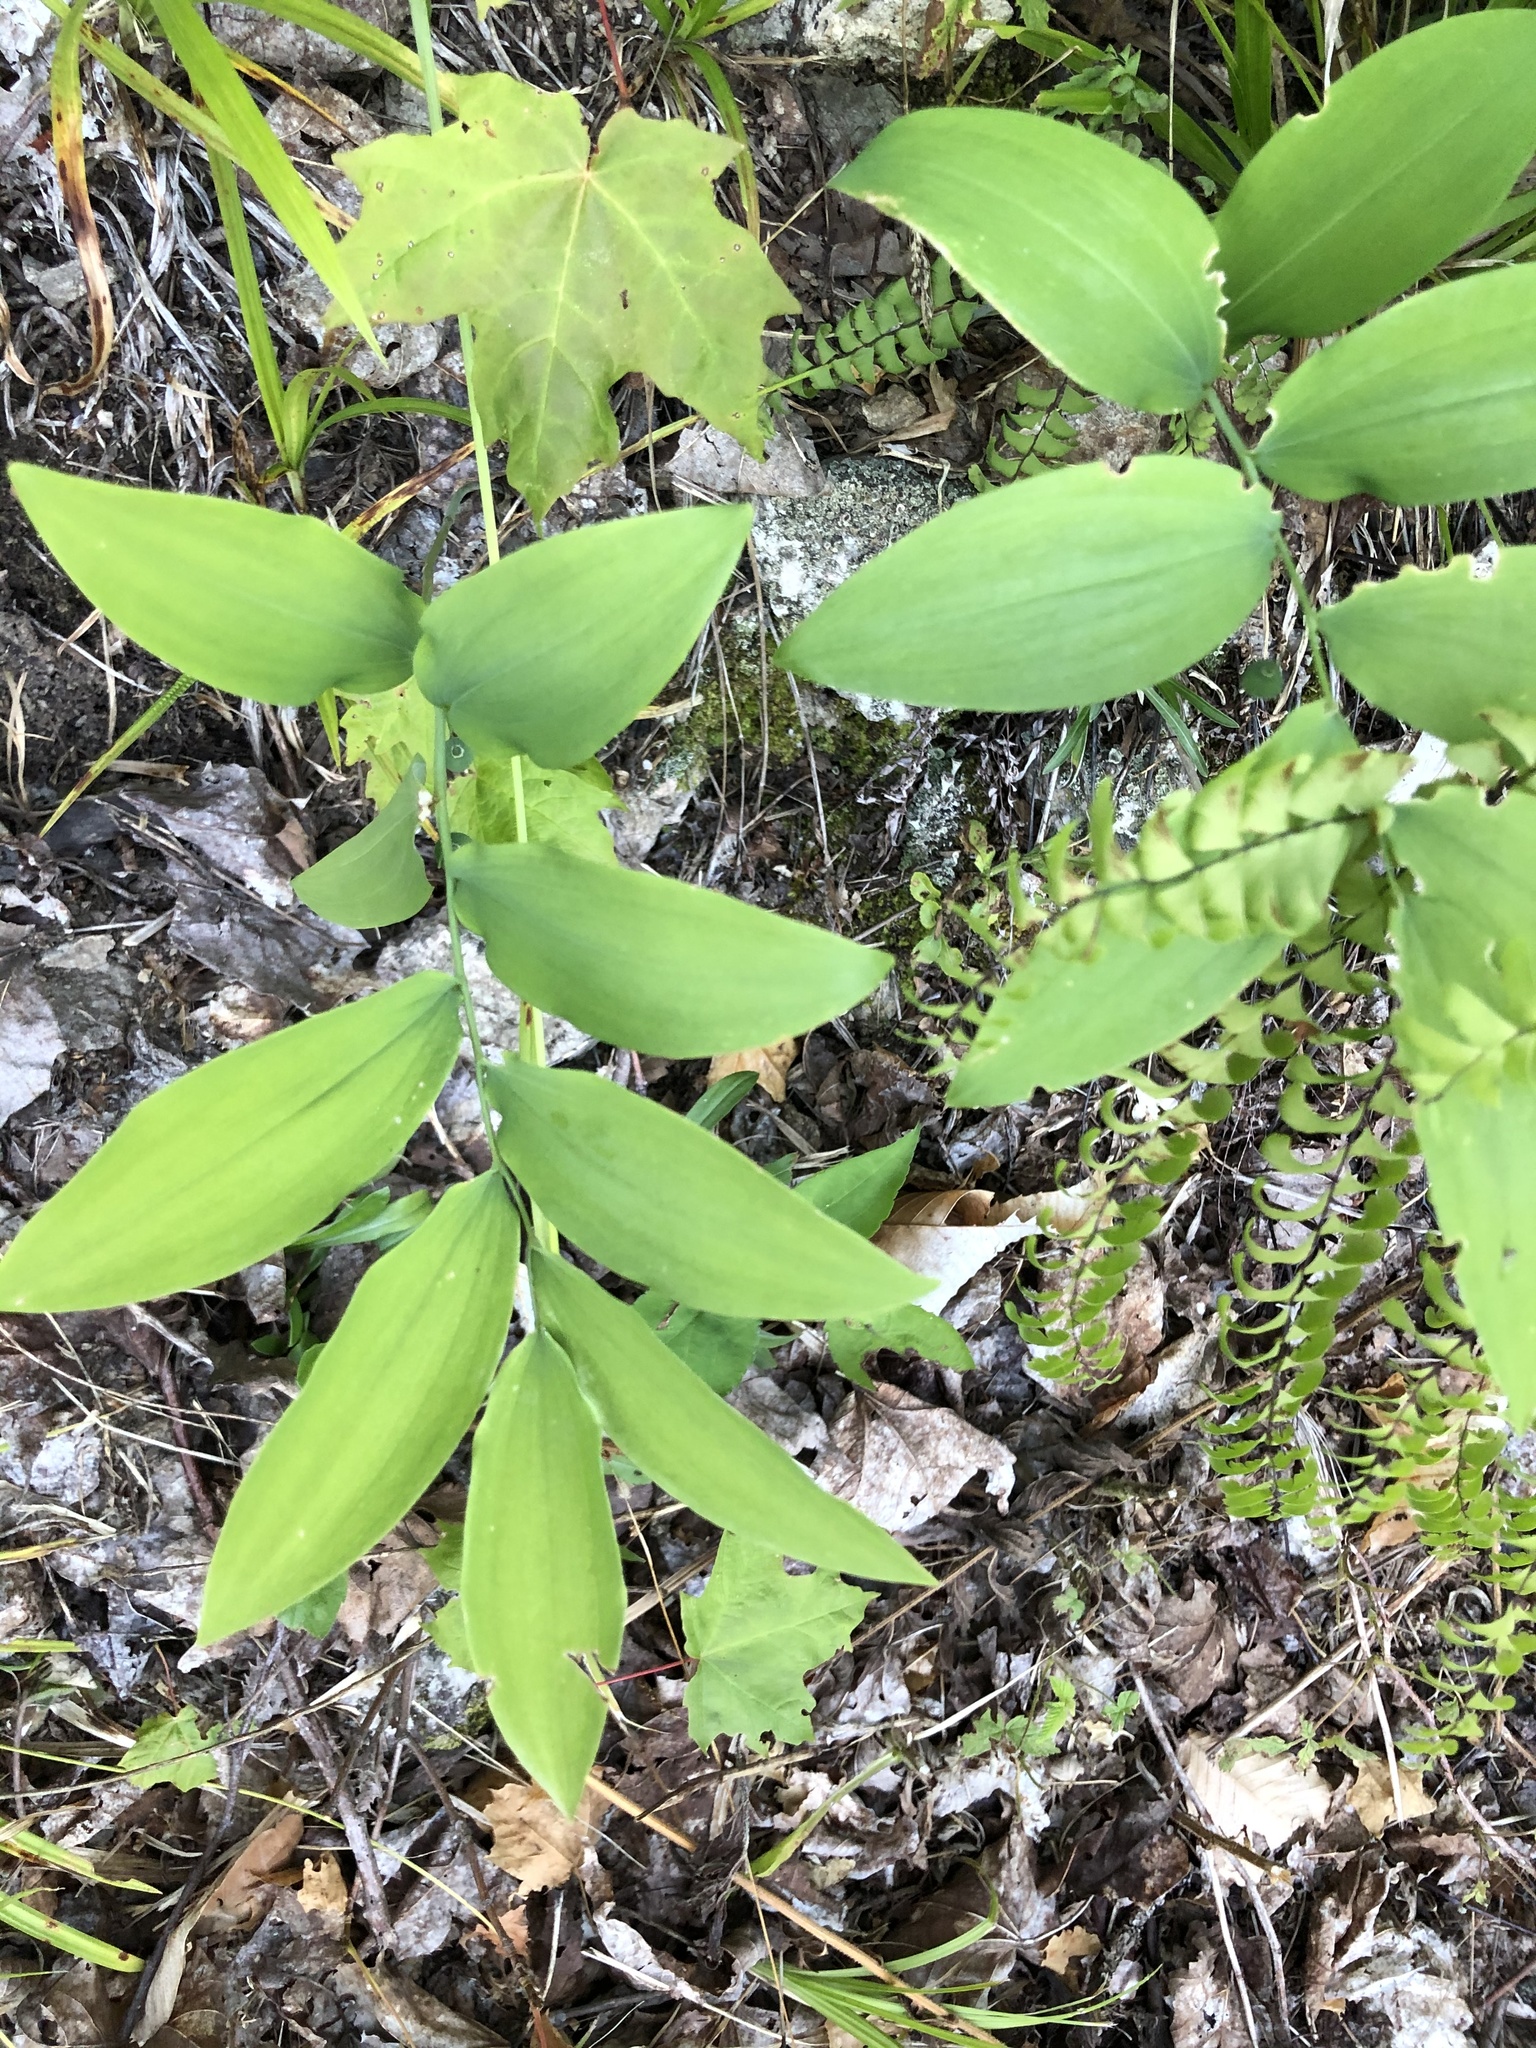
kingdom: Plantae
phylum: Tracheophyta
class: Liliopsida
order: Asparagales
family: Asparagaceae
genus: Polygonatum
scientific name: Polygonatum pubescens
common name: Downy solomon's seal
